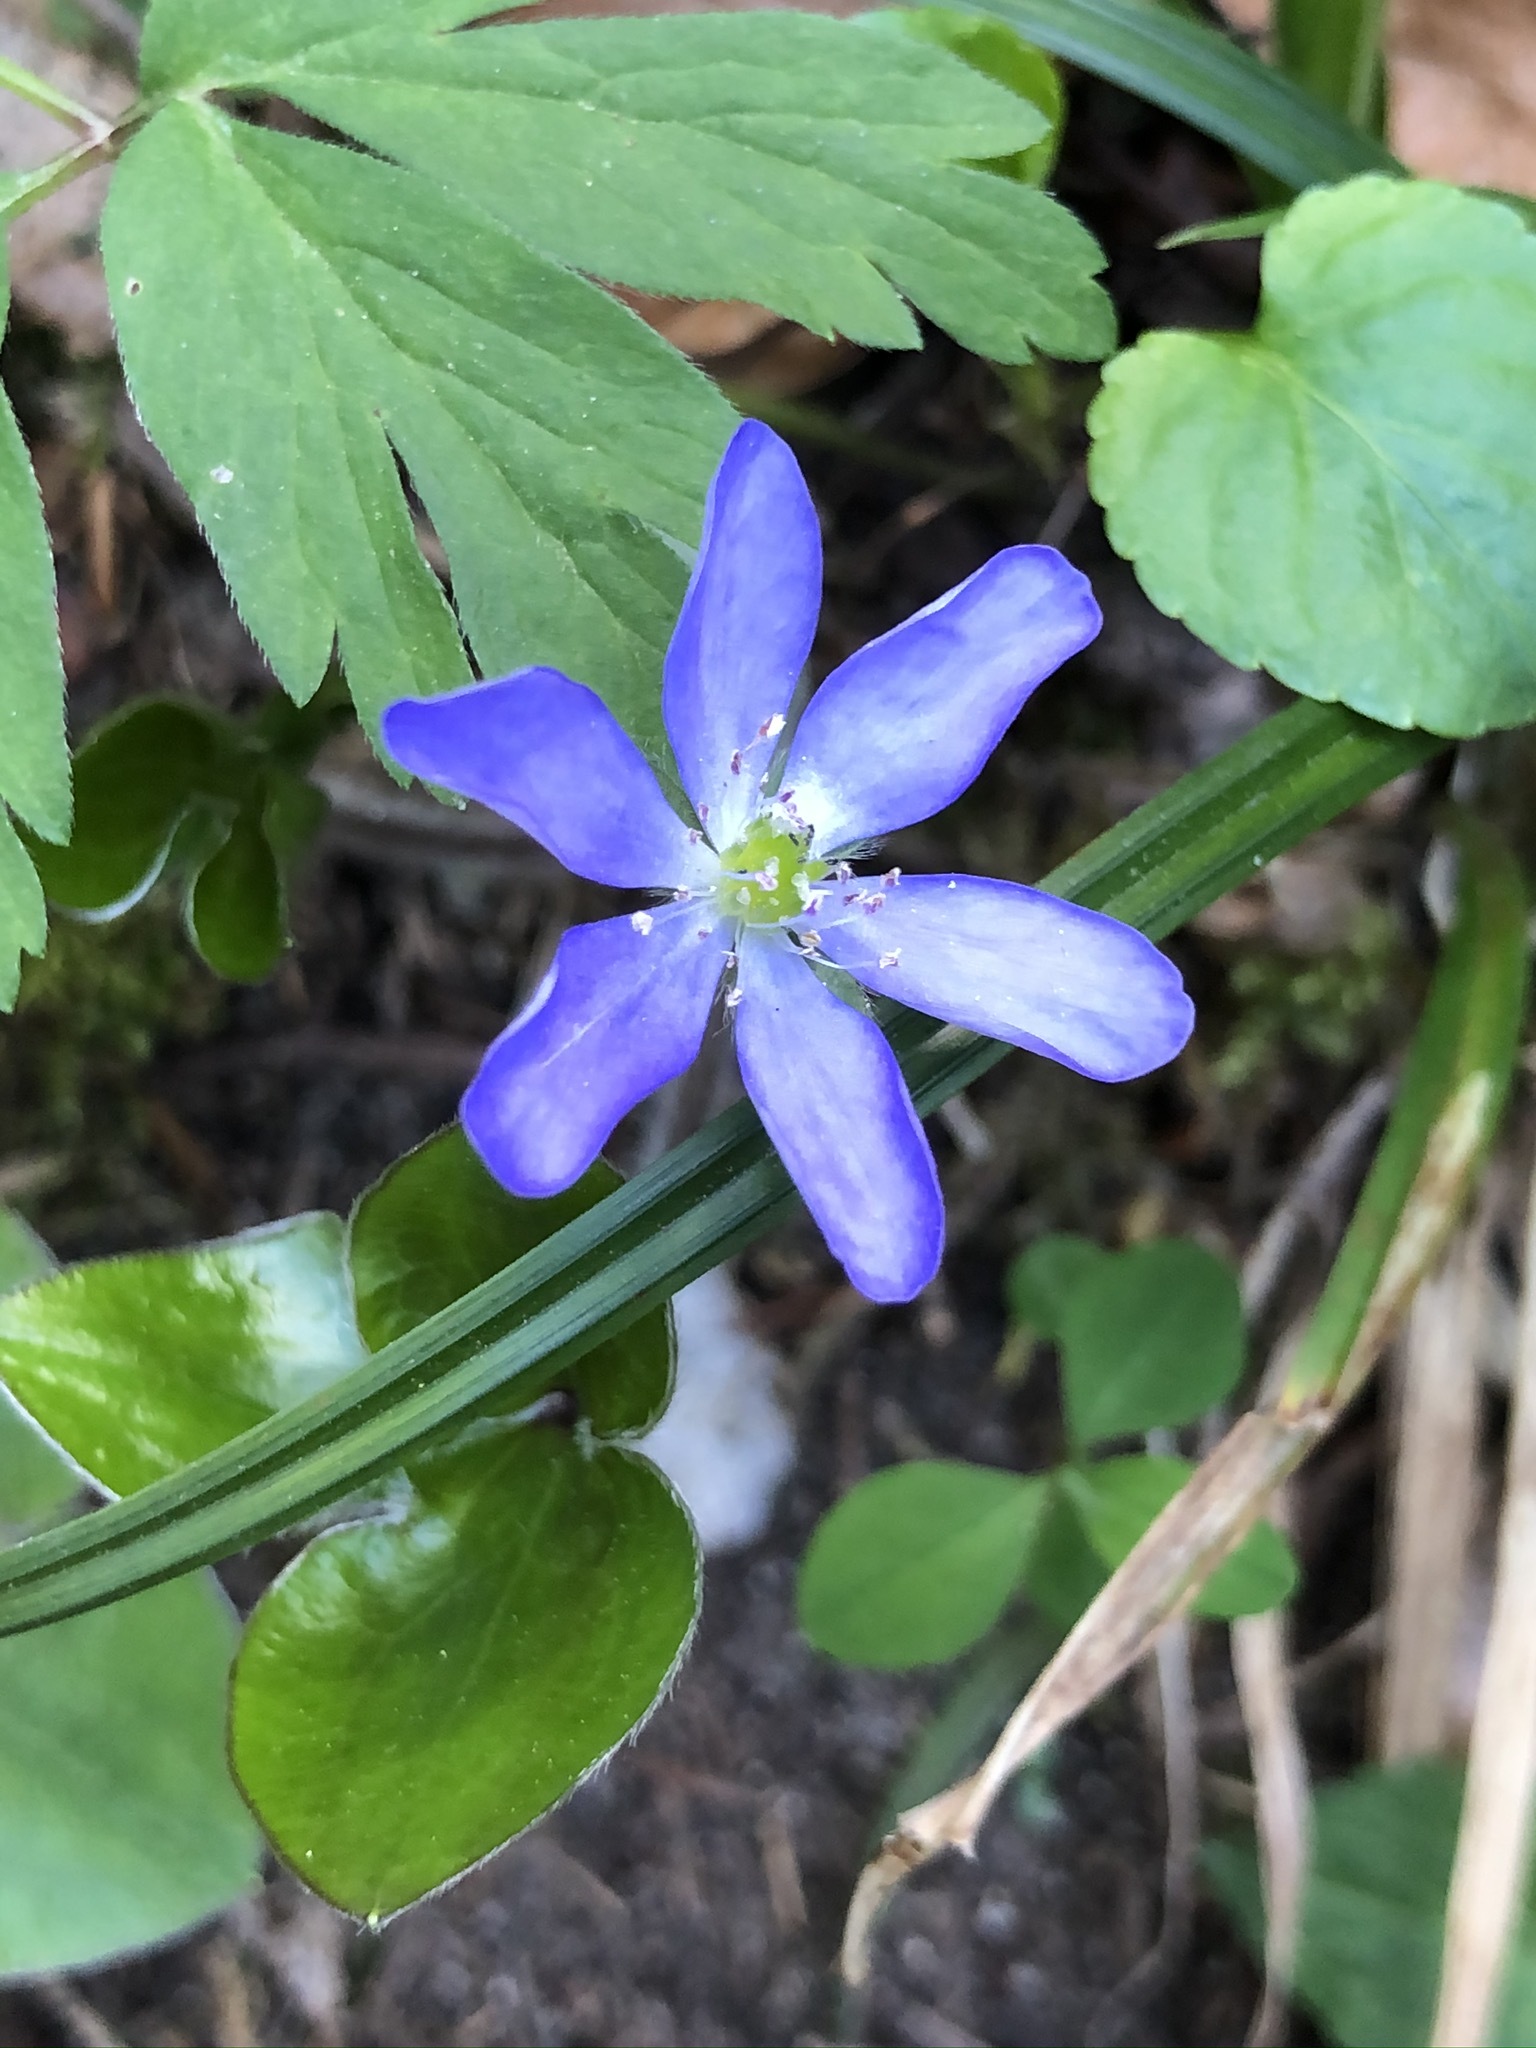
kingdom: Plantae
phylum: Tracheophyta
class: Magnoliopsida
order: Ranunculales
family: Ranunculaceae
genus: Hepatica
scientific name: Hepatica nobilis
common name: Liverleaf
